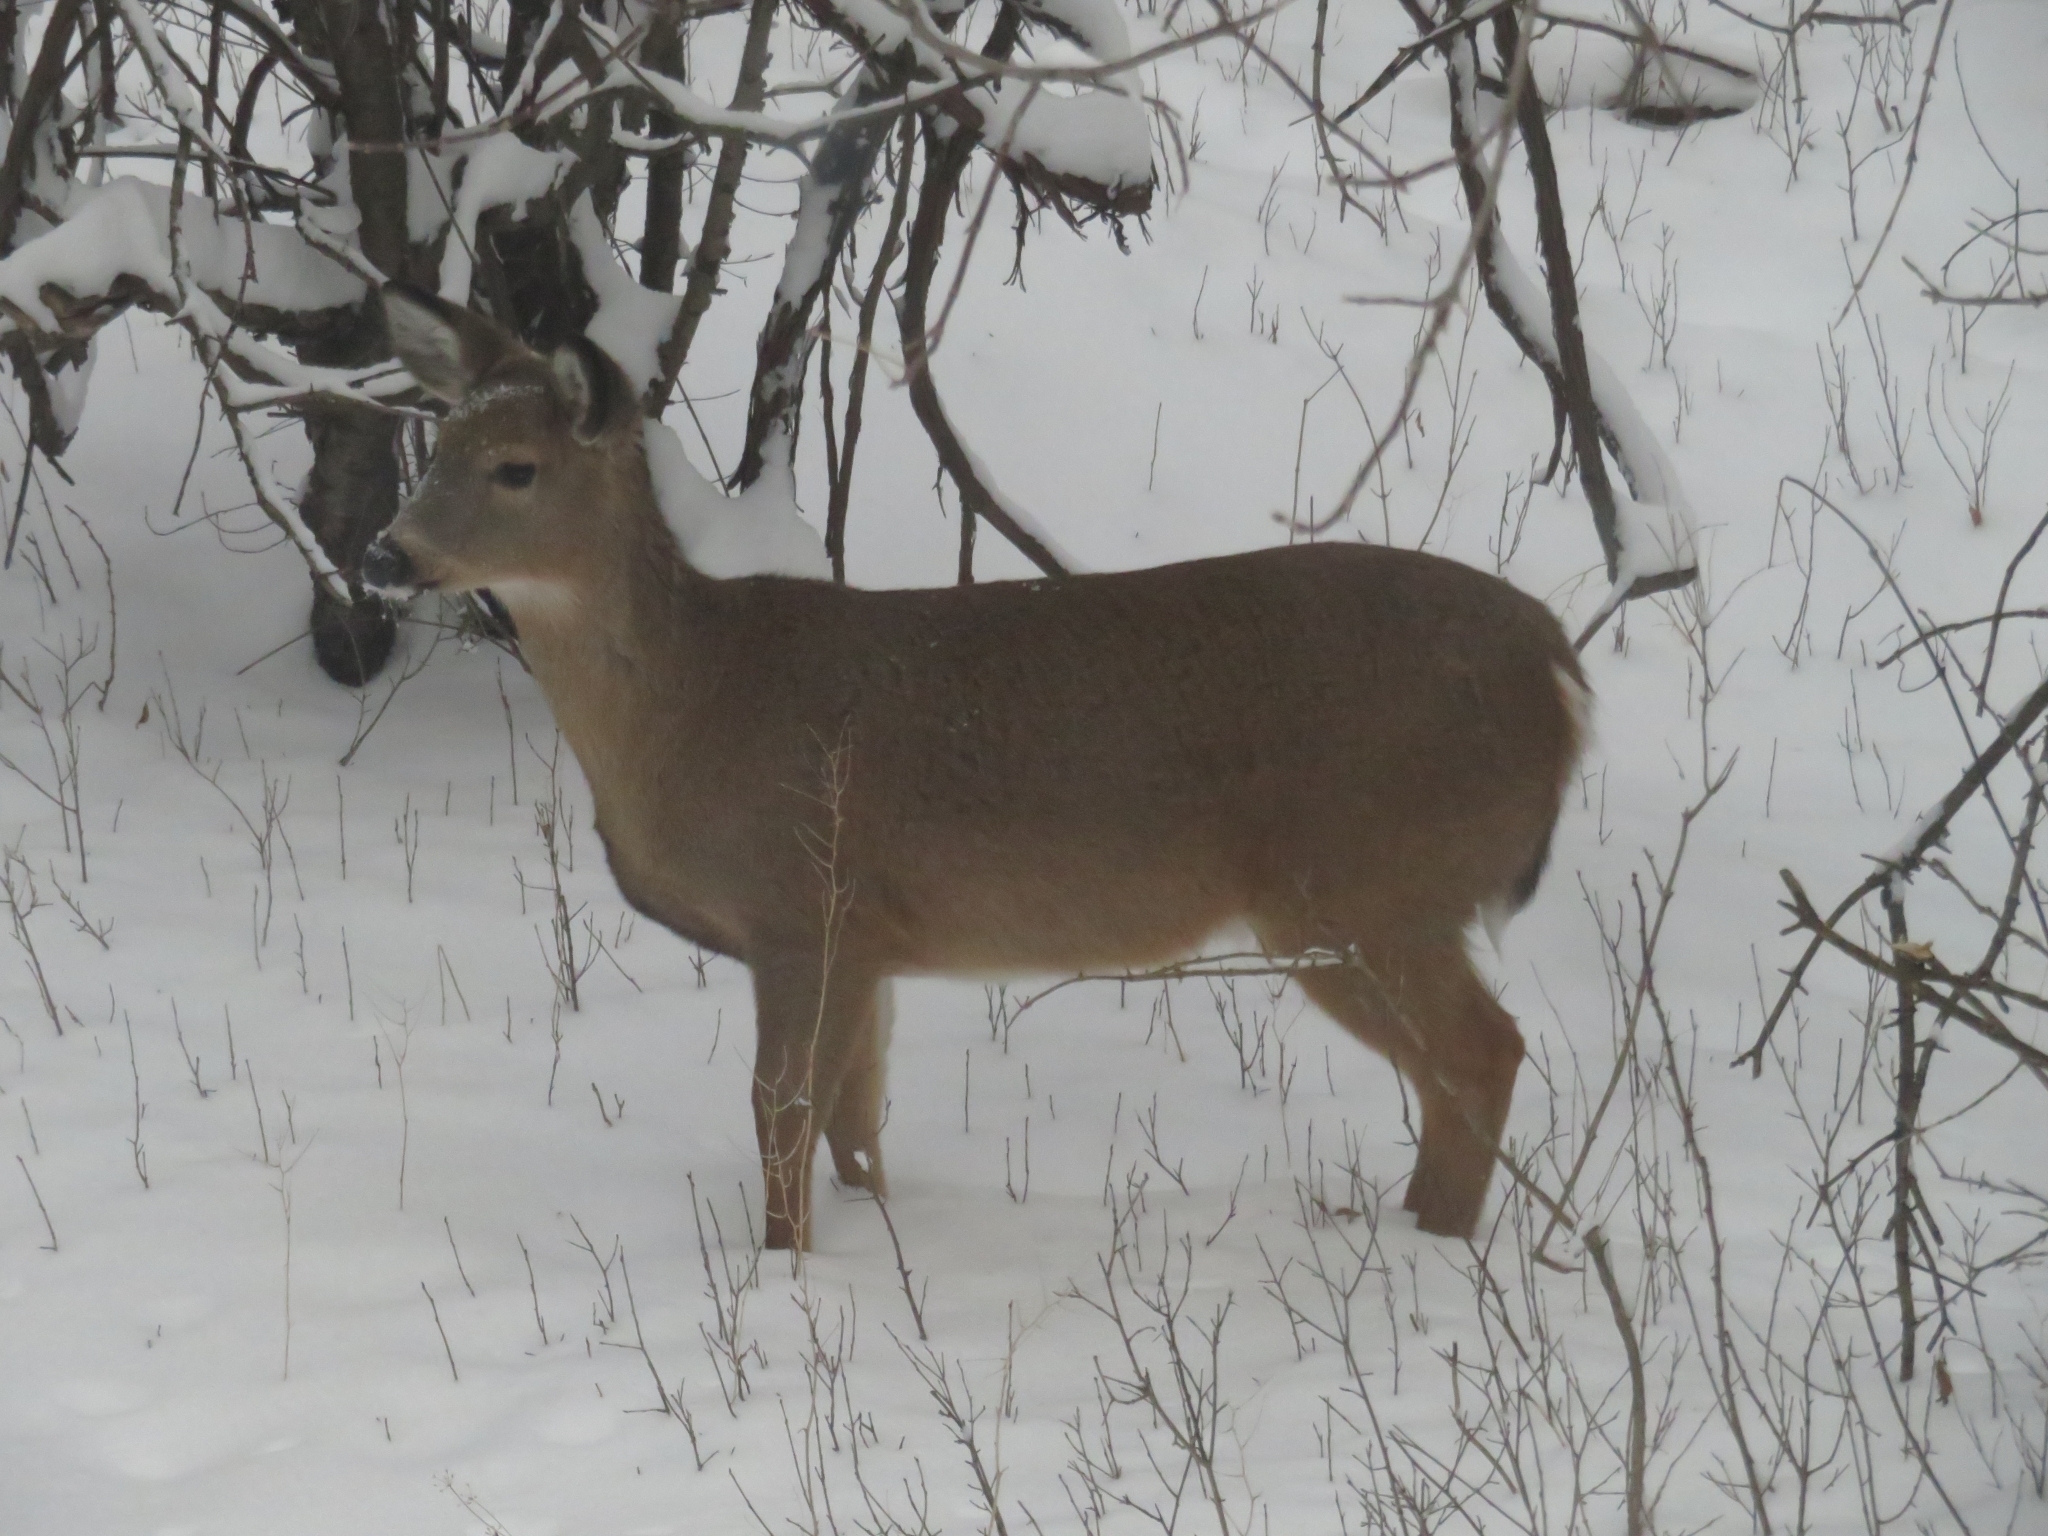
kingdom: Animalia
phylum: Chordata
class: Mammalia
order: Artiodactyla
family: Cervidae
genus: Odocoileus
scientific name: Odocoileus virginianus
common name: White-tailed deer
